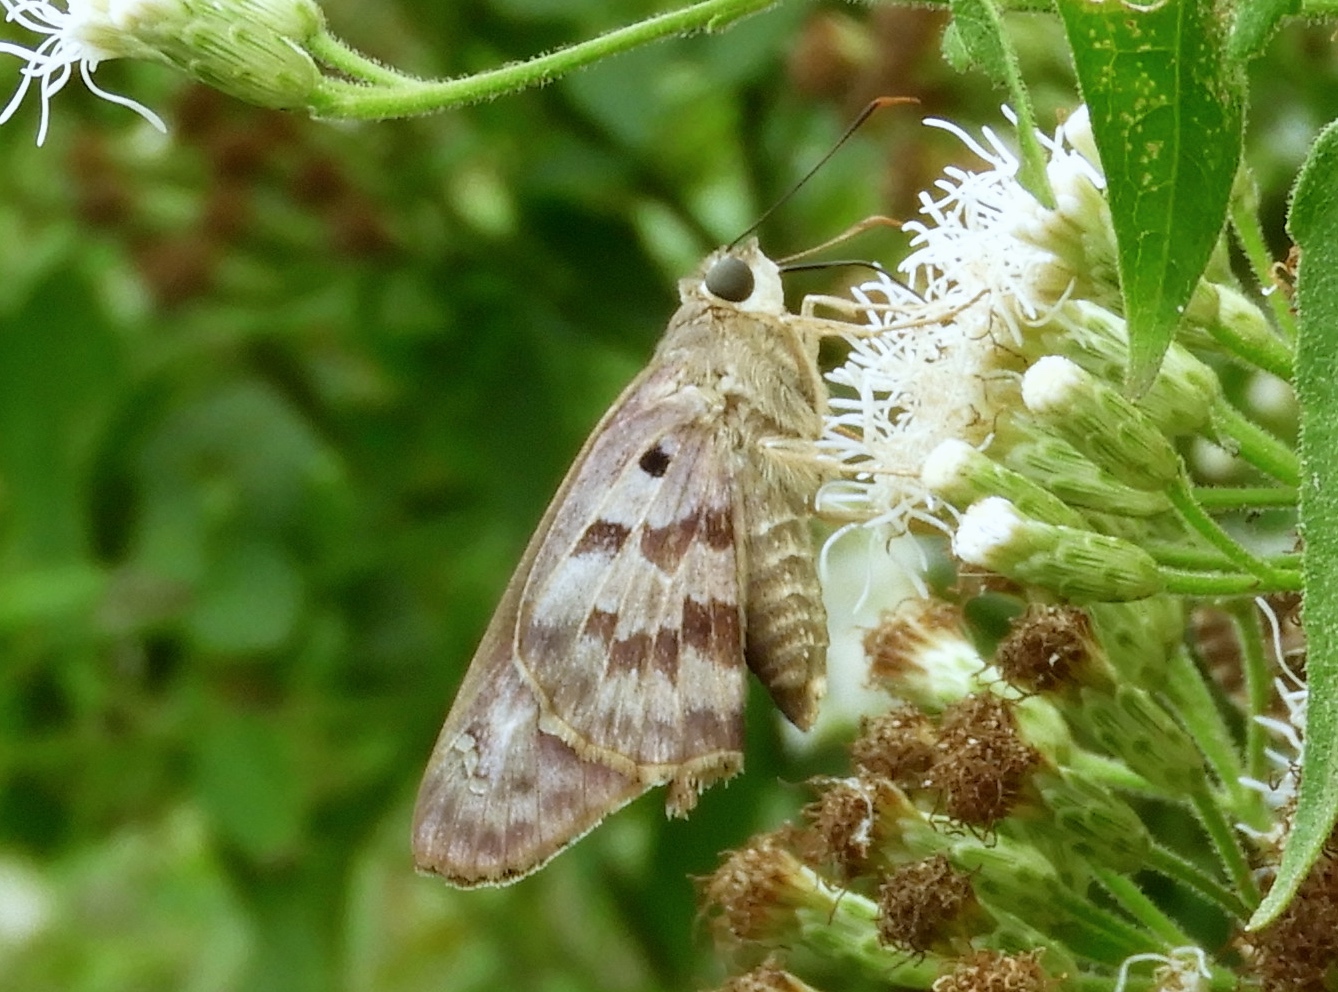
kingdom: Animalia
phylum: Arthropoda
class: Insecta
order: Lepidoptera
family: Hesperiidae
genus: Polygonus
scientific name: Polygonus
